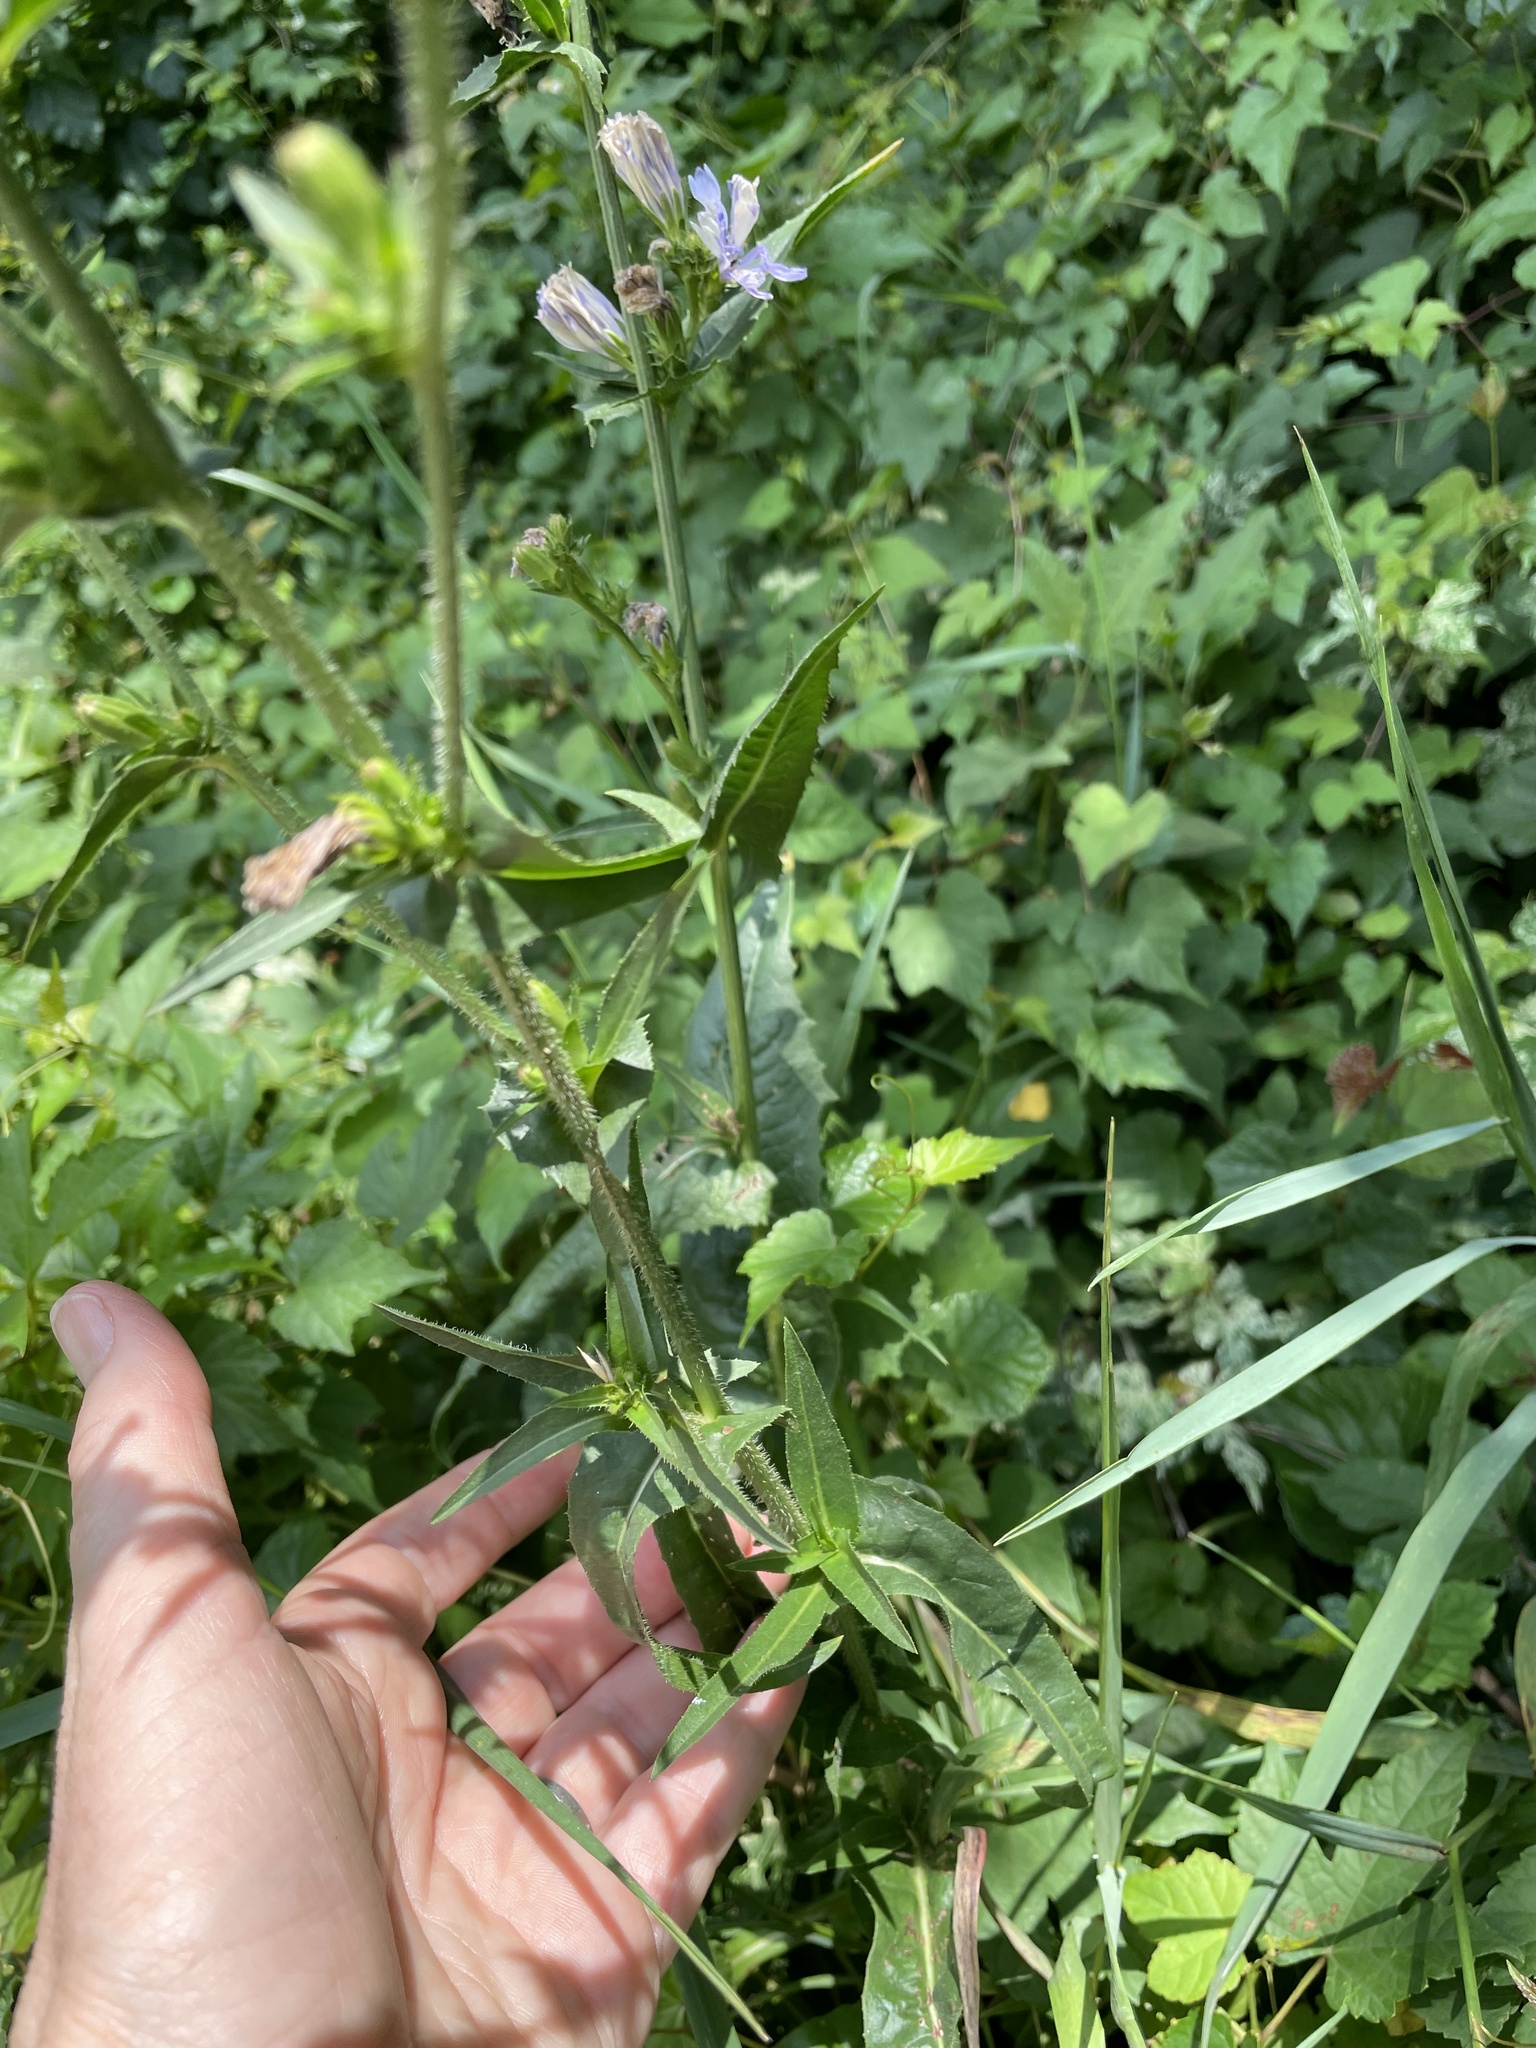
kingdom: Plantae
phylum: Tracheophyta
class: Magnoliopsida
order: Asterales
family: Asteraceae
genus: Cichorium
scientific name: Cichorium intybus
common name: Chicory
